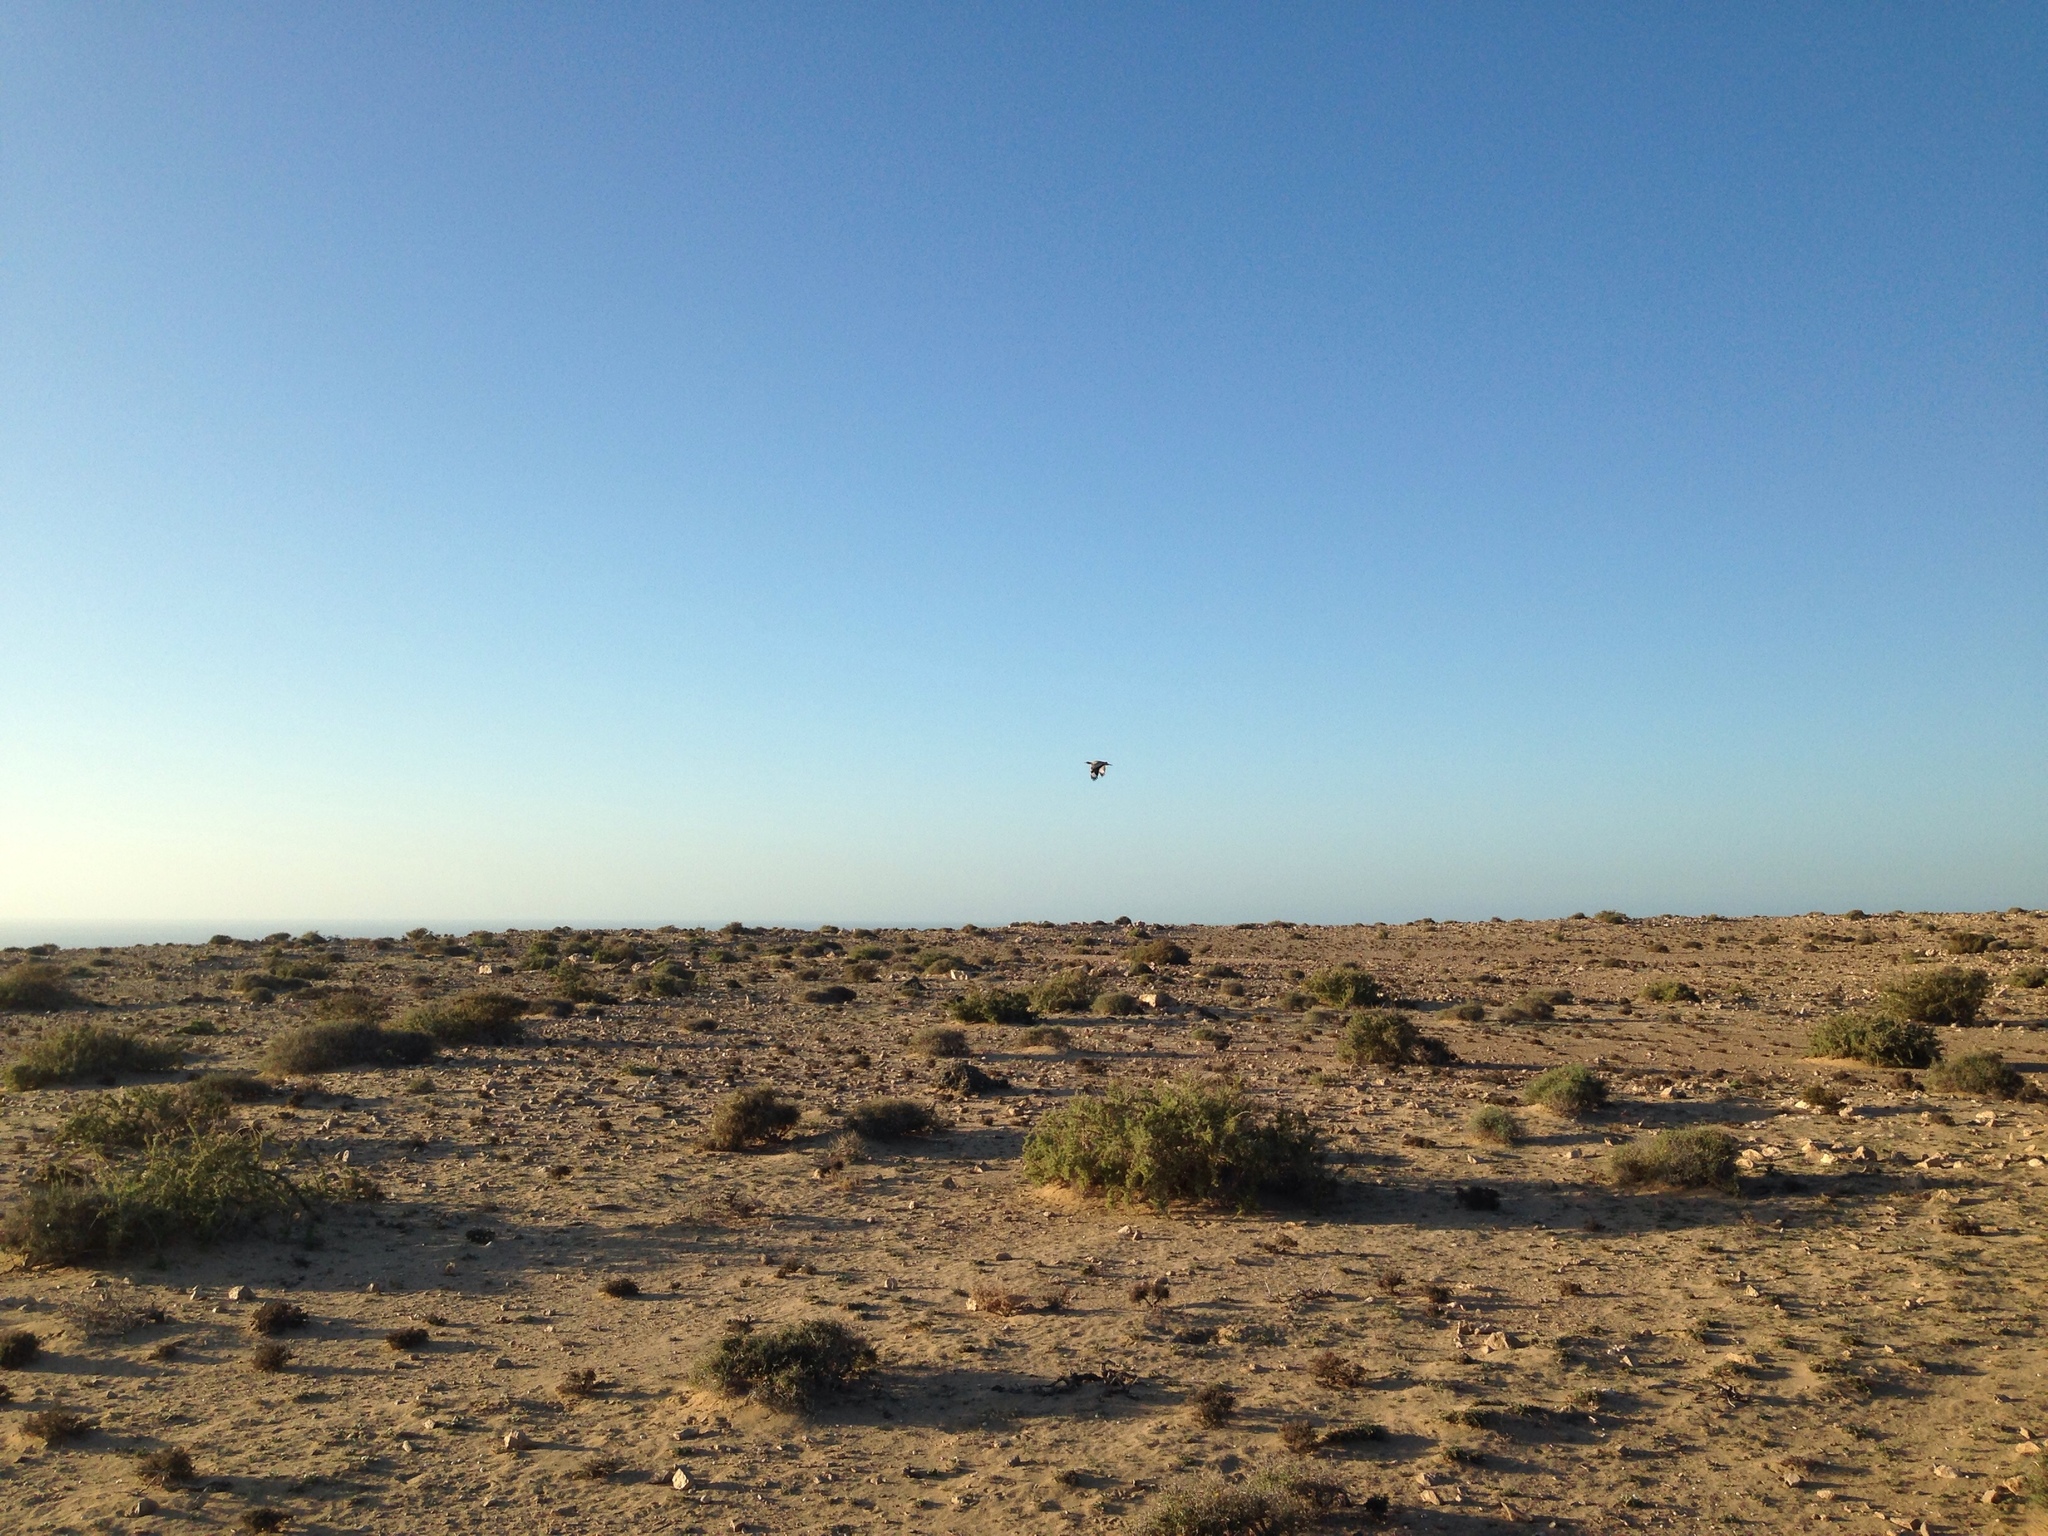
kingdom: Animalia
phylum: Chordata
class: Aves
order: Otidiformes
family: Otididae
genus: Chlamydotis
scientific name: Chlamydotis undulata
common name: Houbara bustard
